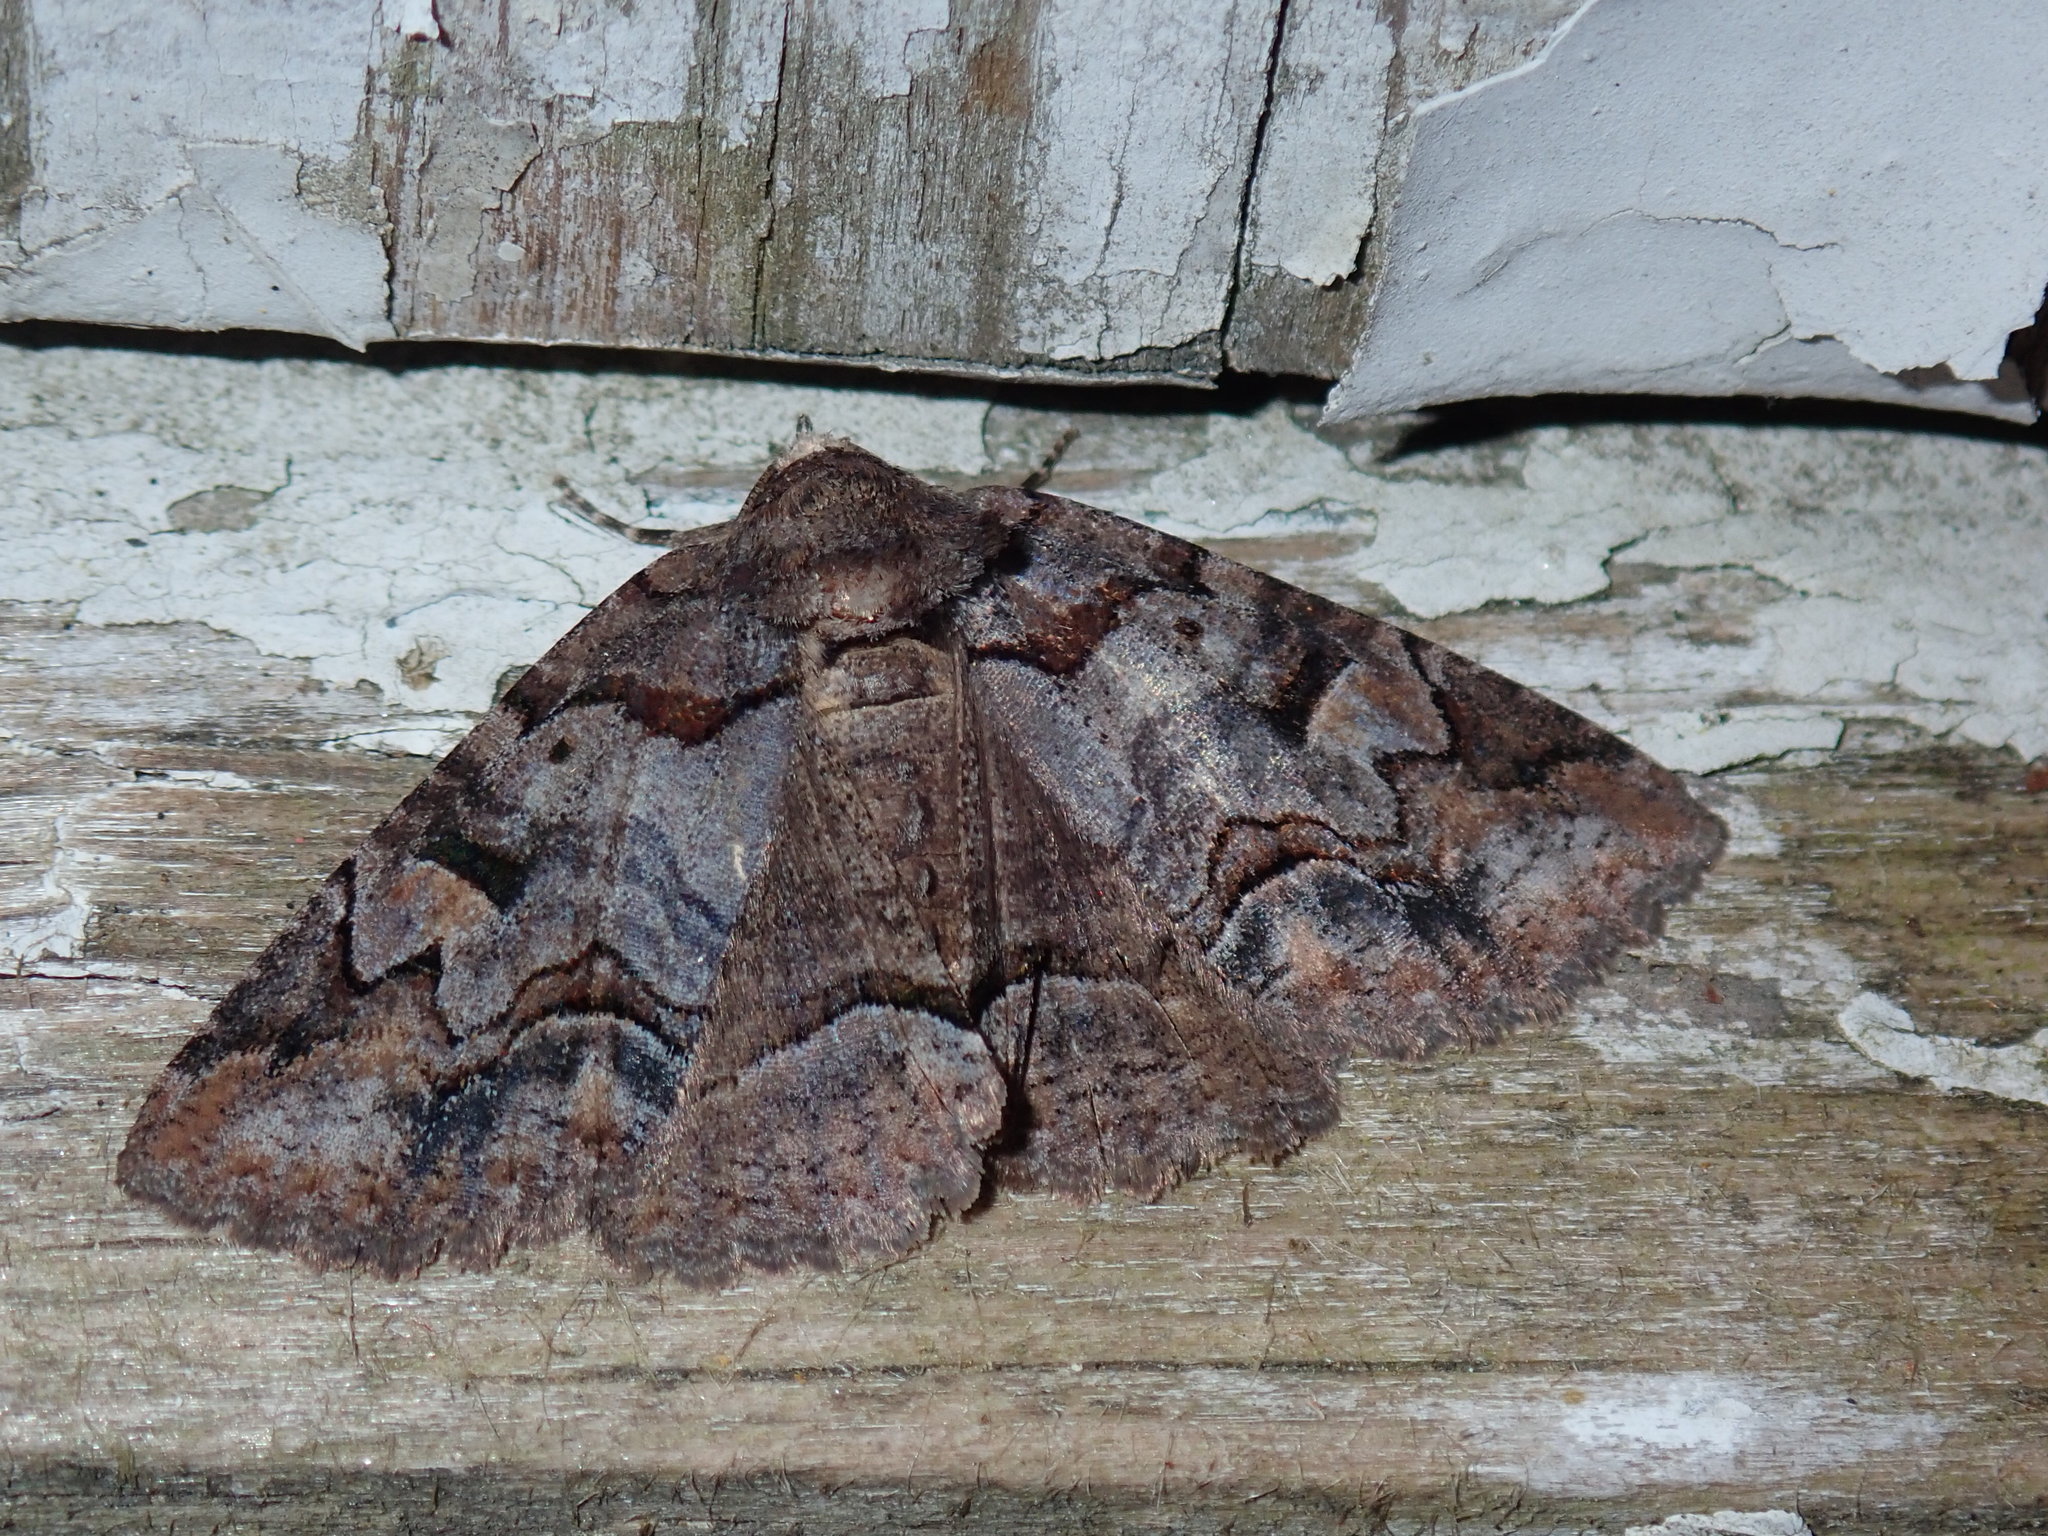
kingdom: Animalia
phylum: Arthropoda
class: Insecta
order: Lepidoptera
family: Erebidae
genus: Zale
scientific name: Zale helata
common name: Brown-spotted zale moth
